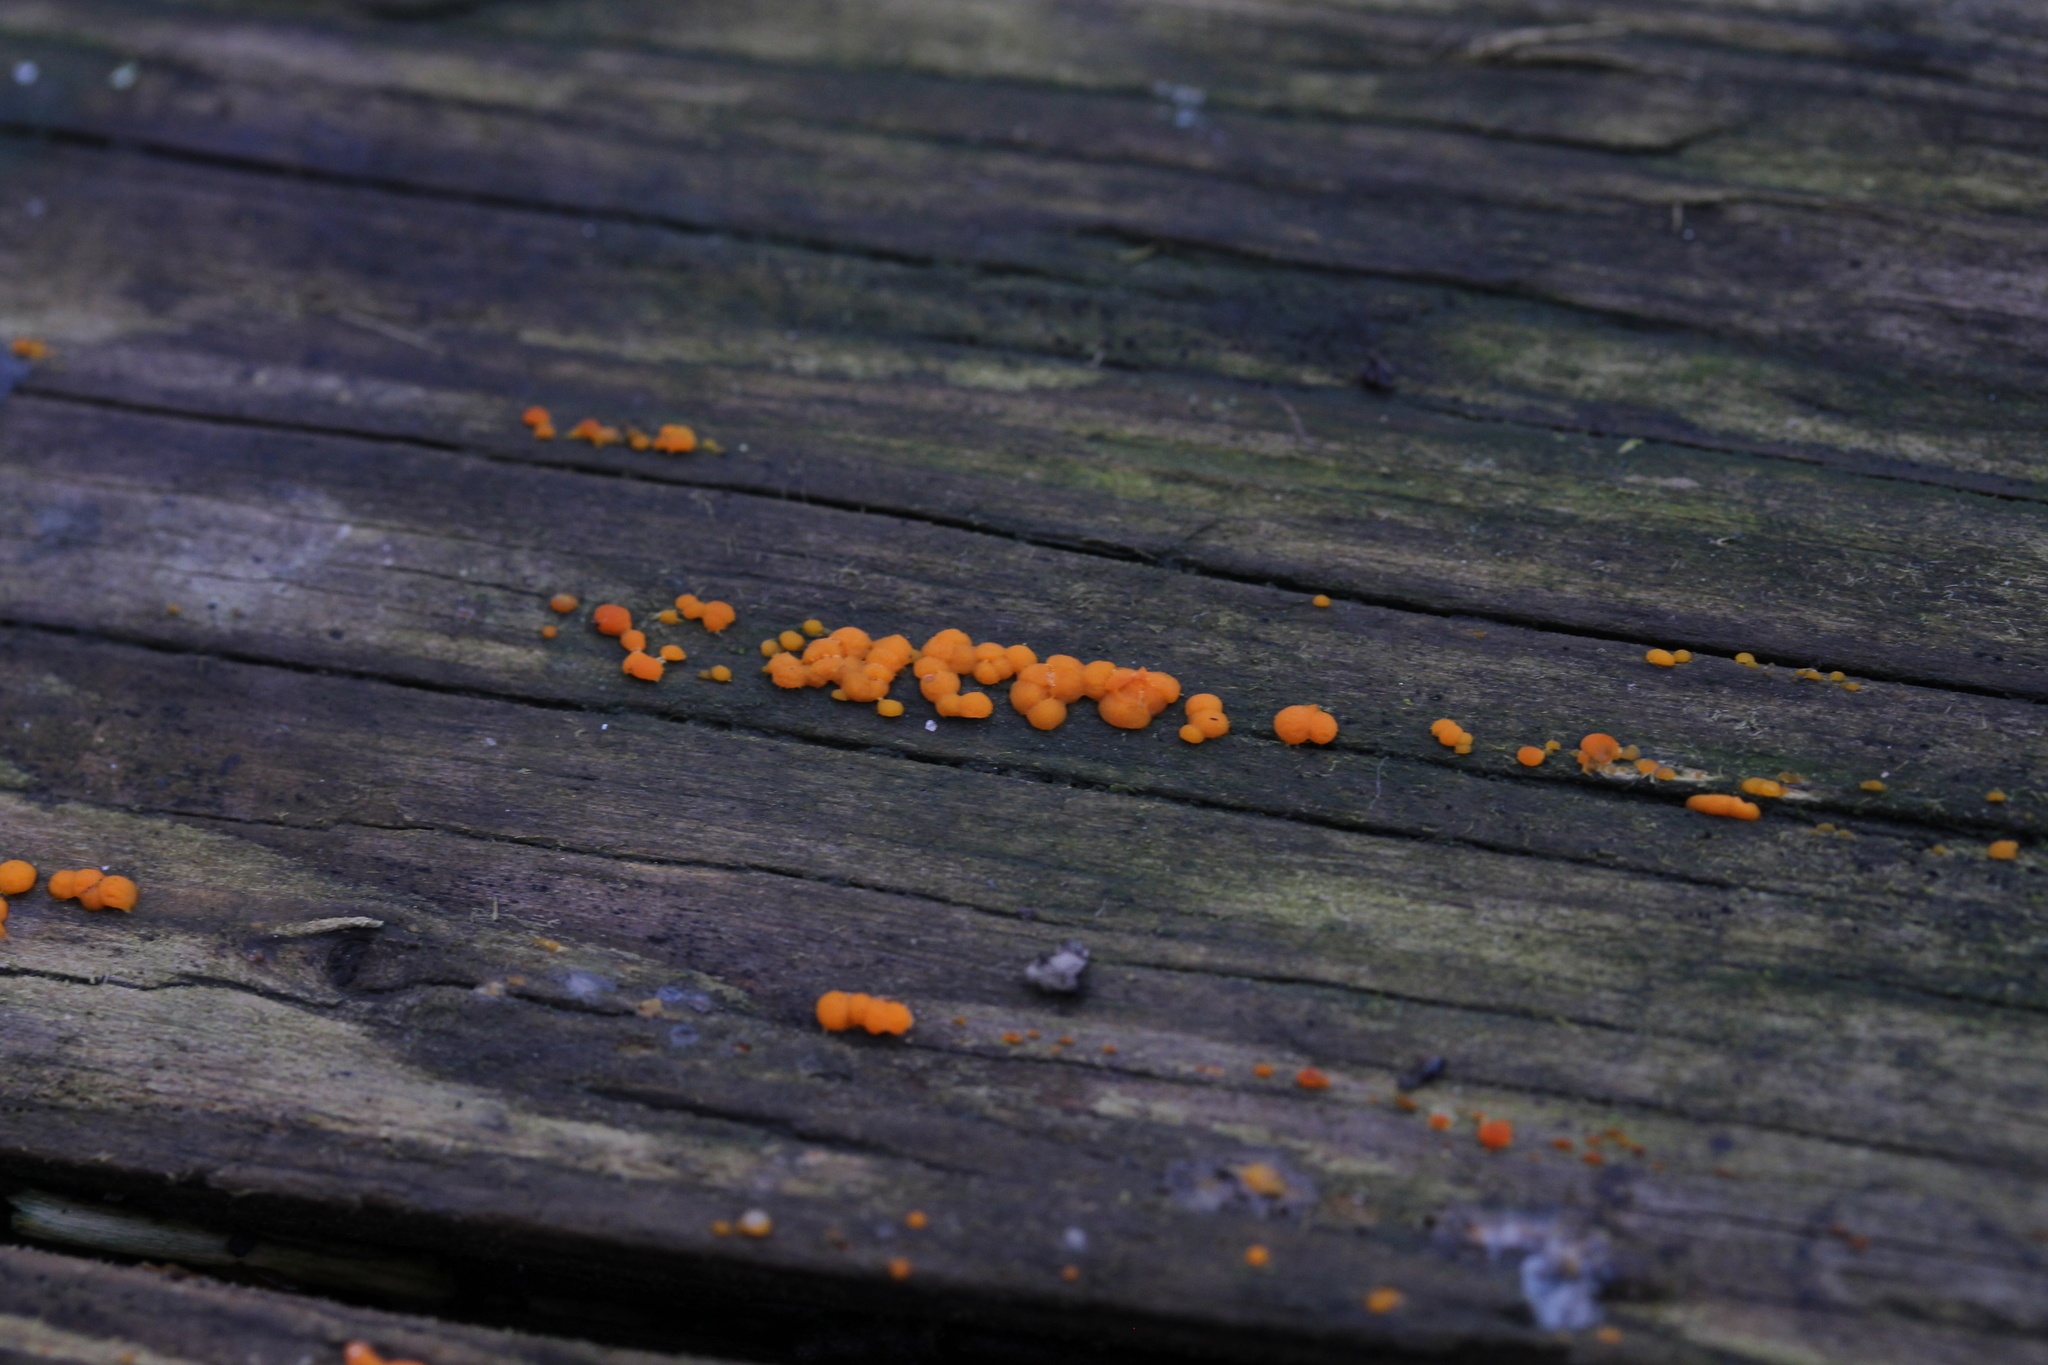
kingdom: Fungi
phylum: Basidiomycota
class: Dacrymycetes
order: Dacrymycetales
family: Dacrymycetaceae
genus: Dacrymyces
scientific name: Dacrymyces stillatus
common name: Common jelly spot
